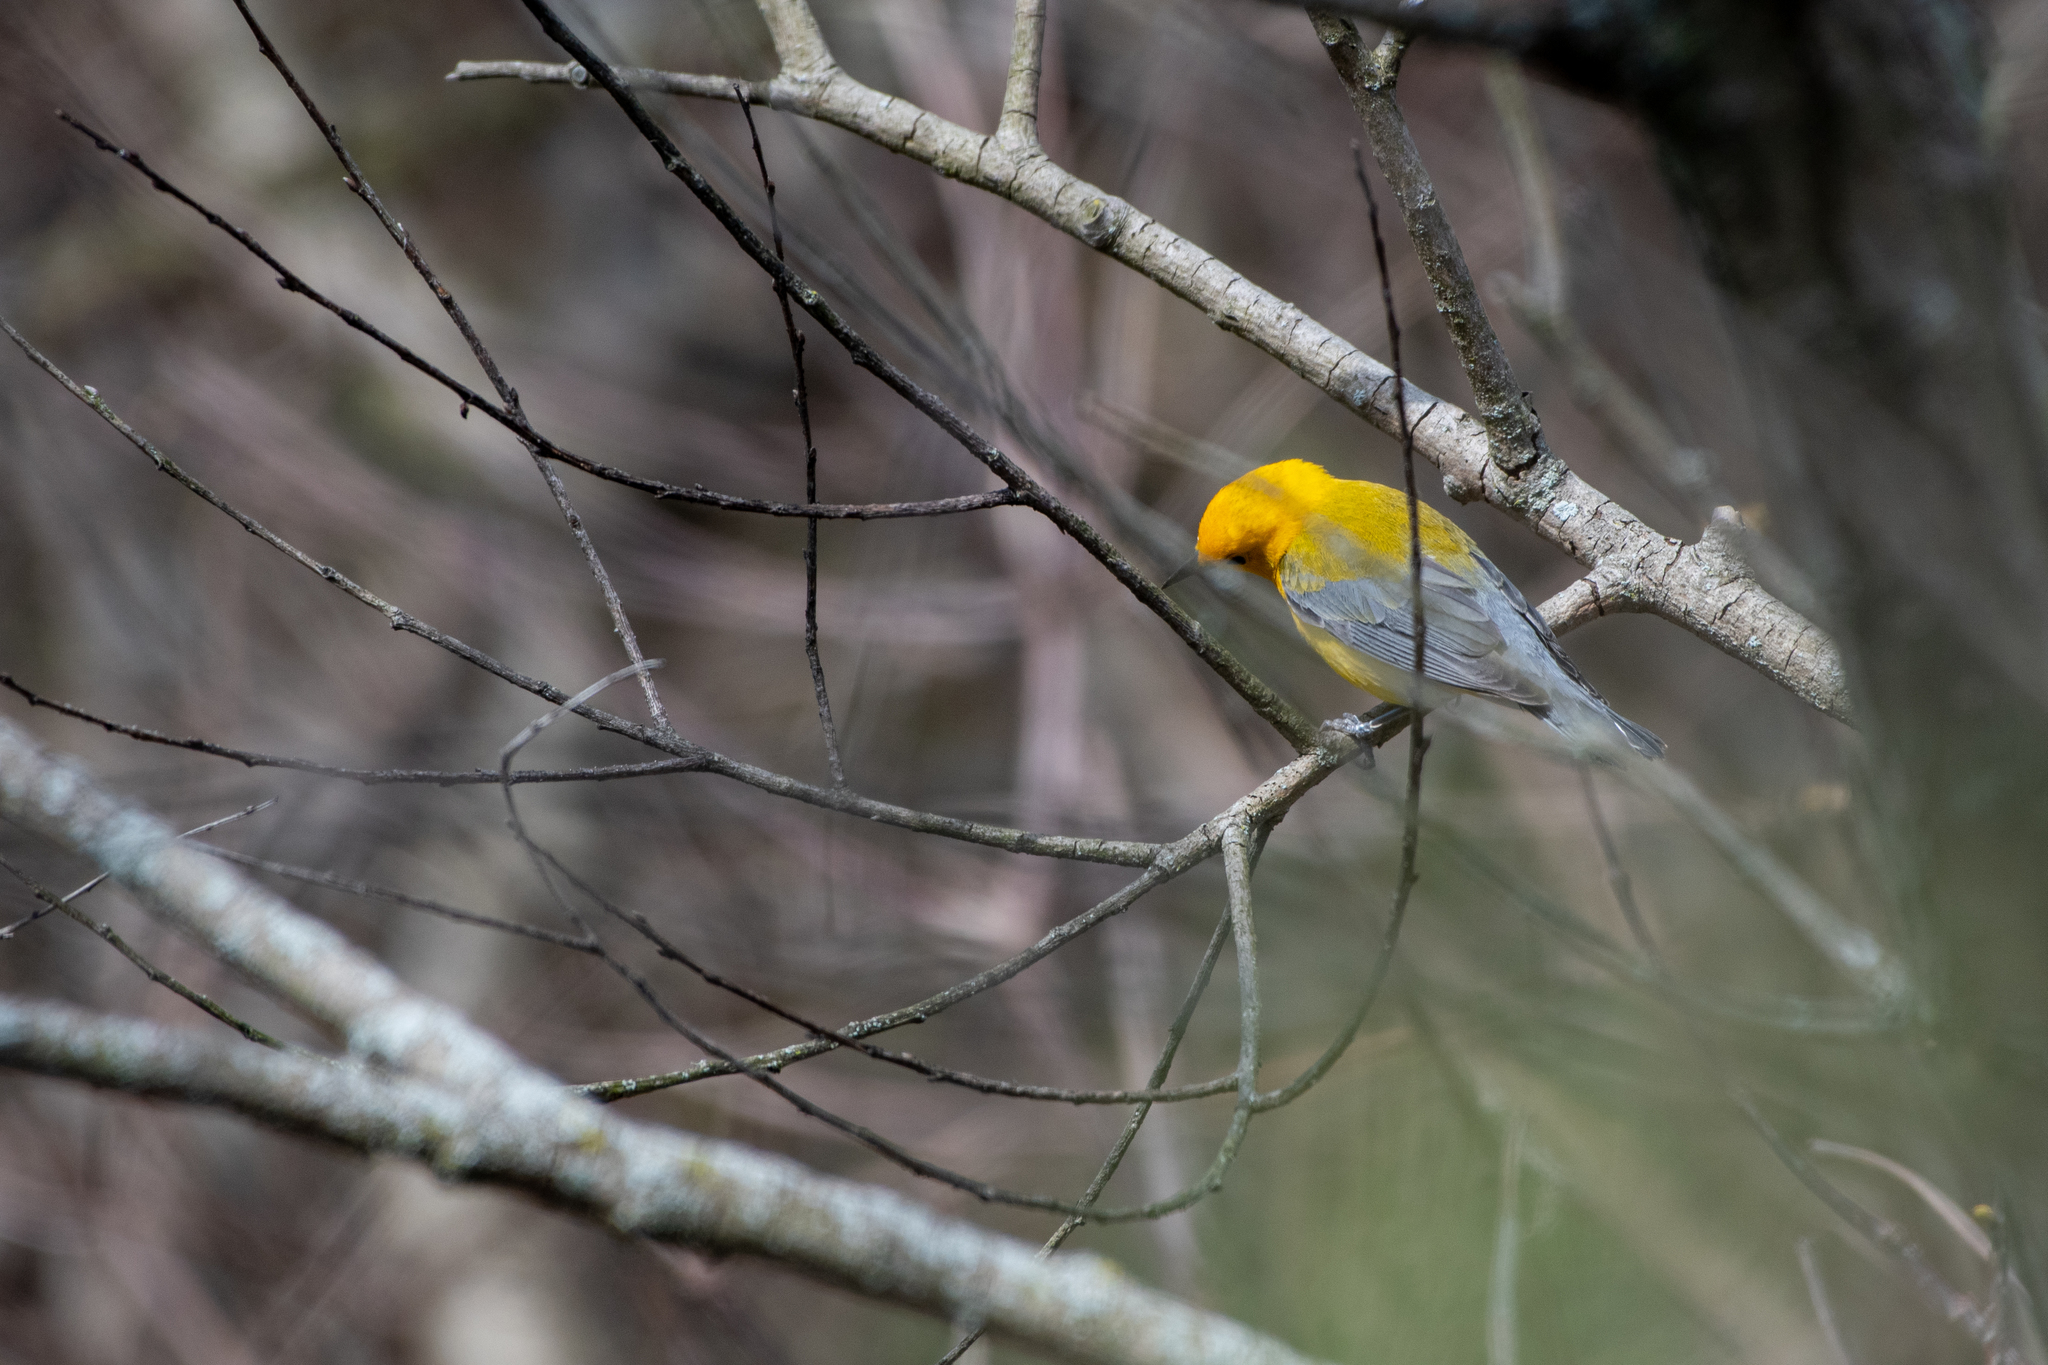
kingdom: Animalia
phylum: Chordata
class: Aves
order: Passeriformes
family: Parulidae
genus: Protonotaria
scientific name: Protonotaria citrea
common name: Prothonotary warbler
